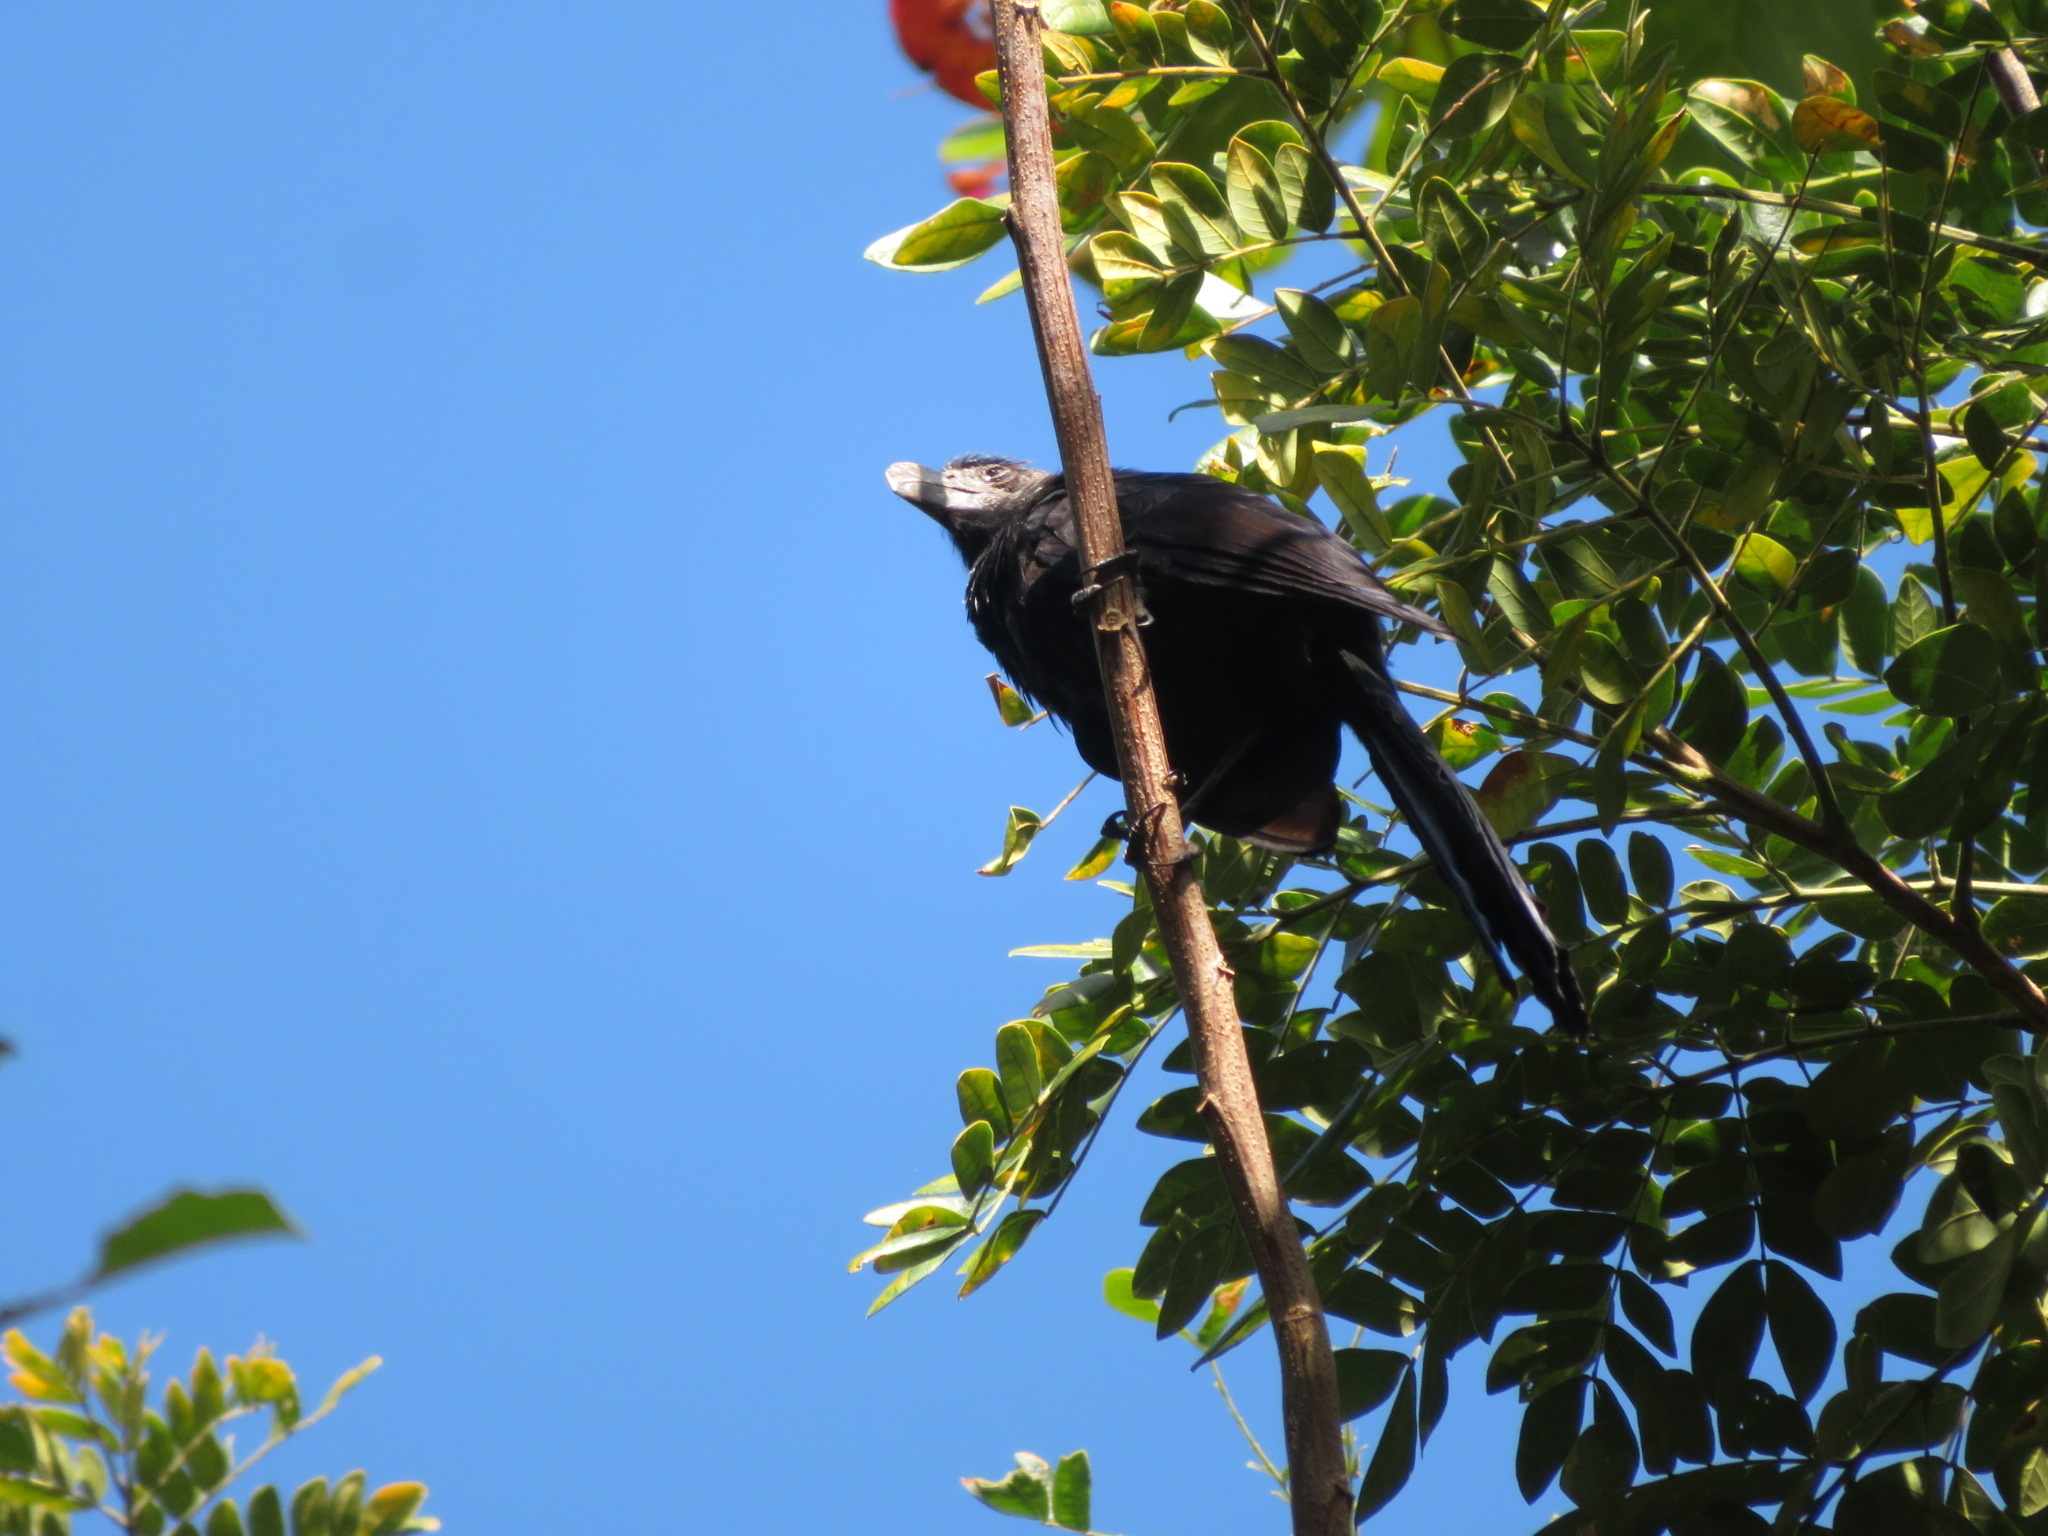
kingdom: Animalia
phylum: Chordata
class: Aves
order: Cuculiformes
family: Cuculidae
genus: Crotophaga
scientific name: Crotophaga ani
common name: Smooth-billed ani
